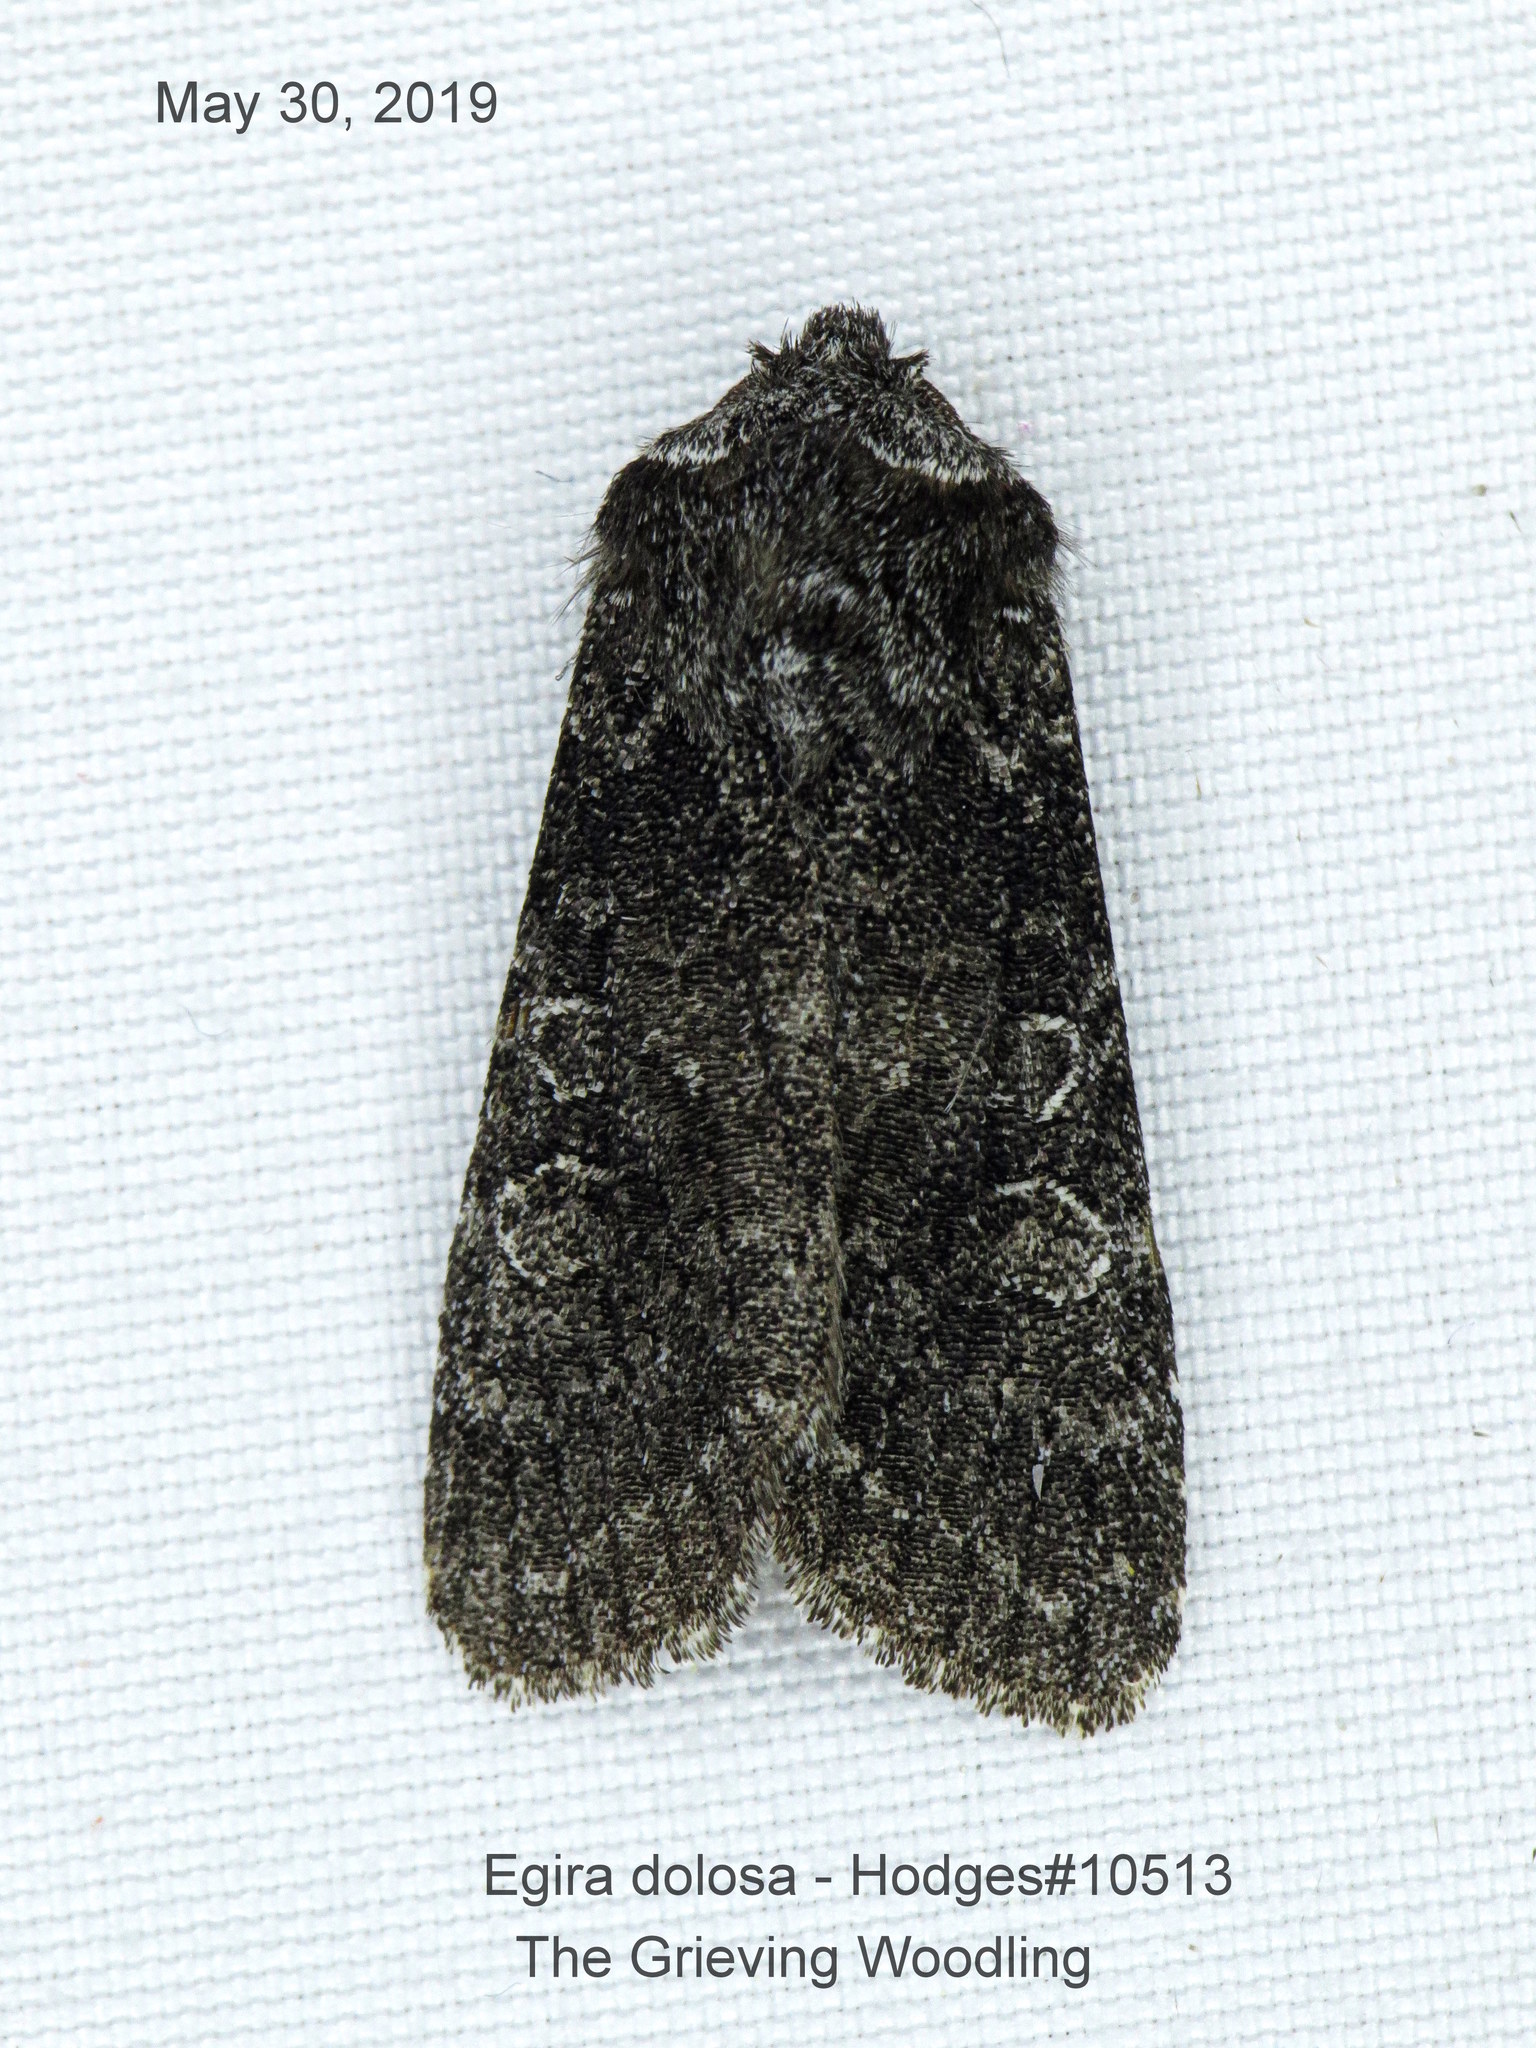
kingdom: Animalia
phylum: Arthropoda
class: Insecta
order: Lepidoptera
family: Noctuidae
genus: Egira
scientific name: Egira dolosa
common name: Lined black aspen cat.
